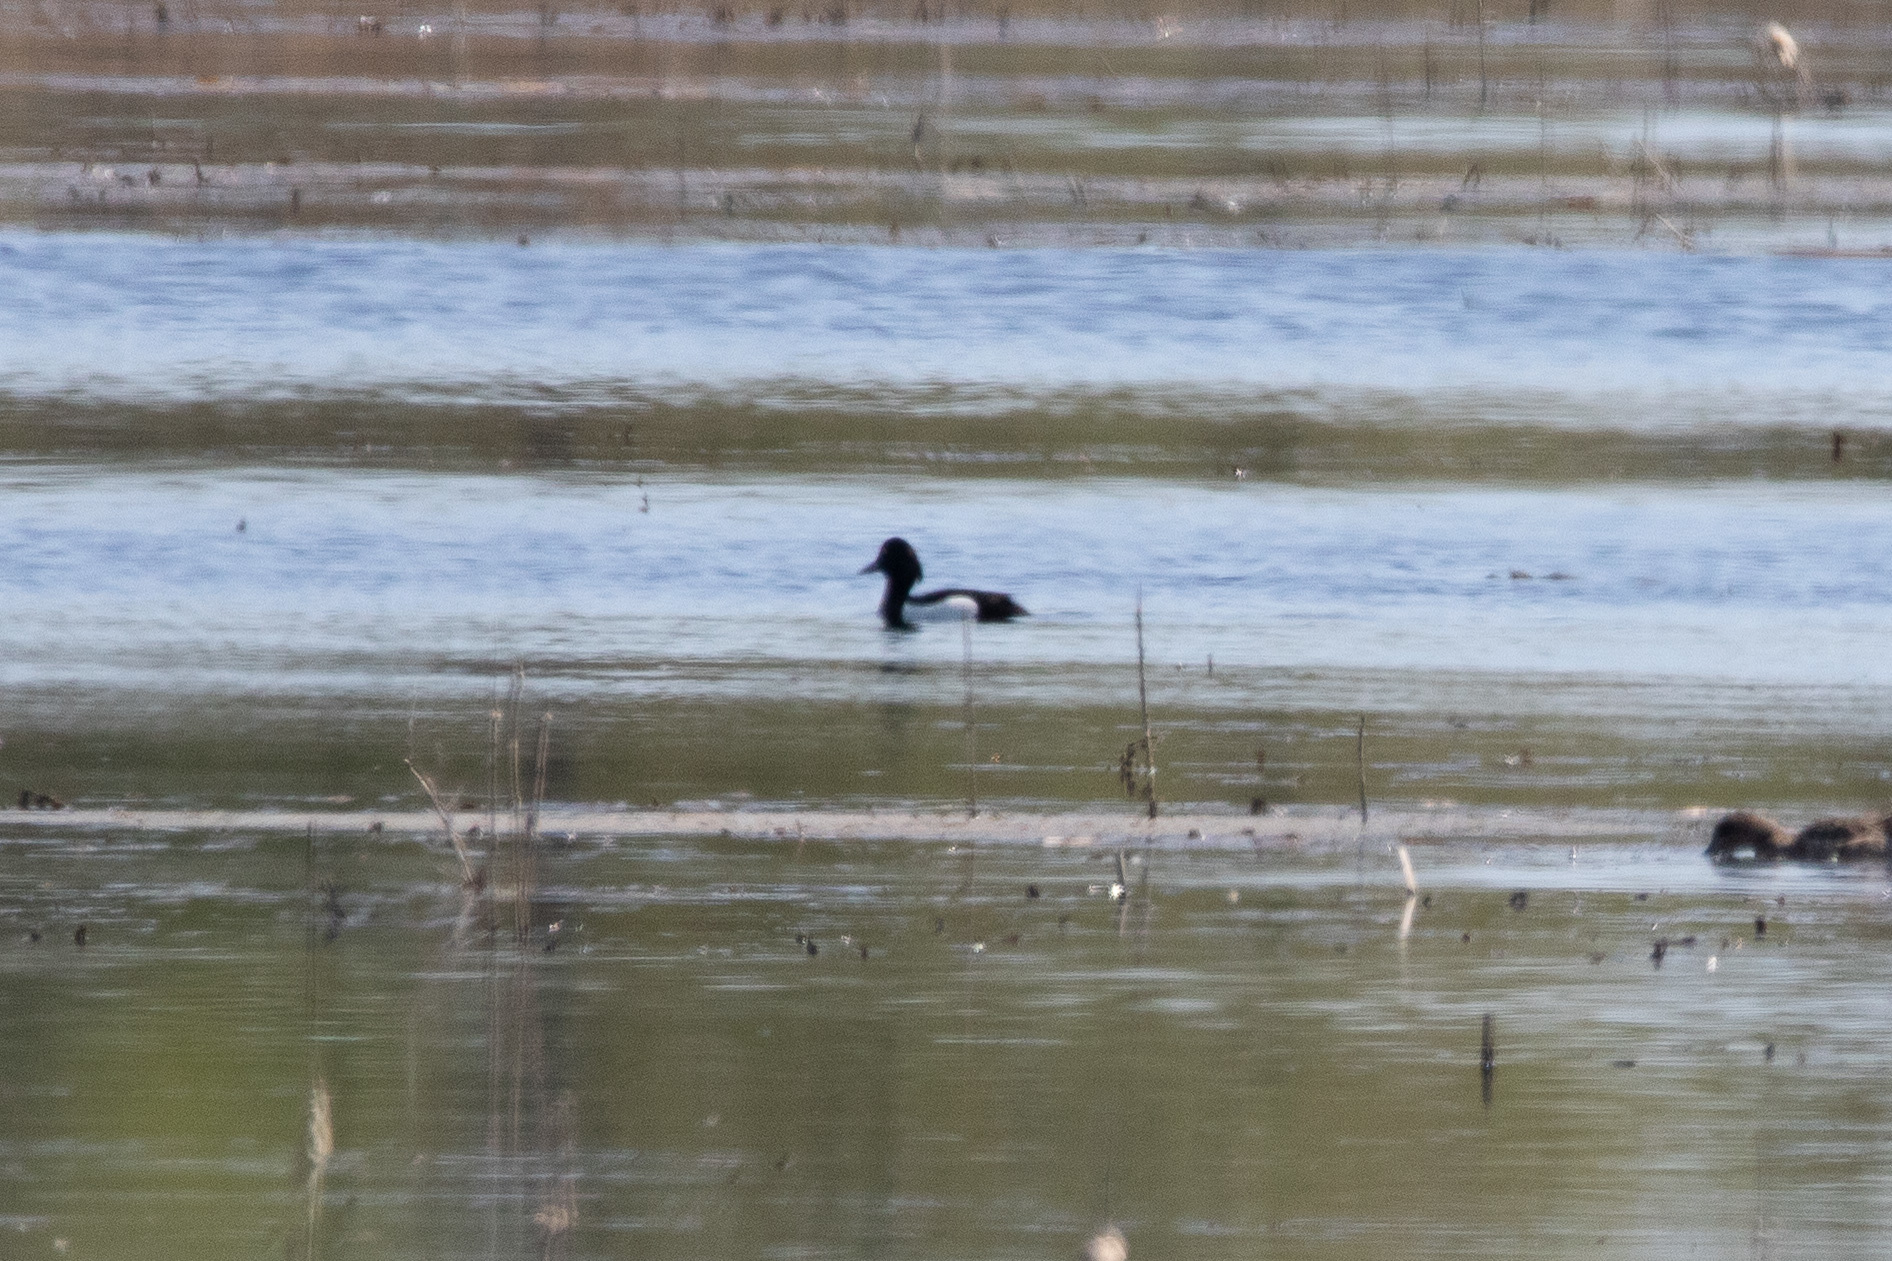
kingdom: Animalia
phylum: Chordata
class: Aves
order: Anseriformes
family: Anatidae
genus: Aythya
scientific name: Aythya fuligula
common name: Tufted duck
